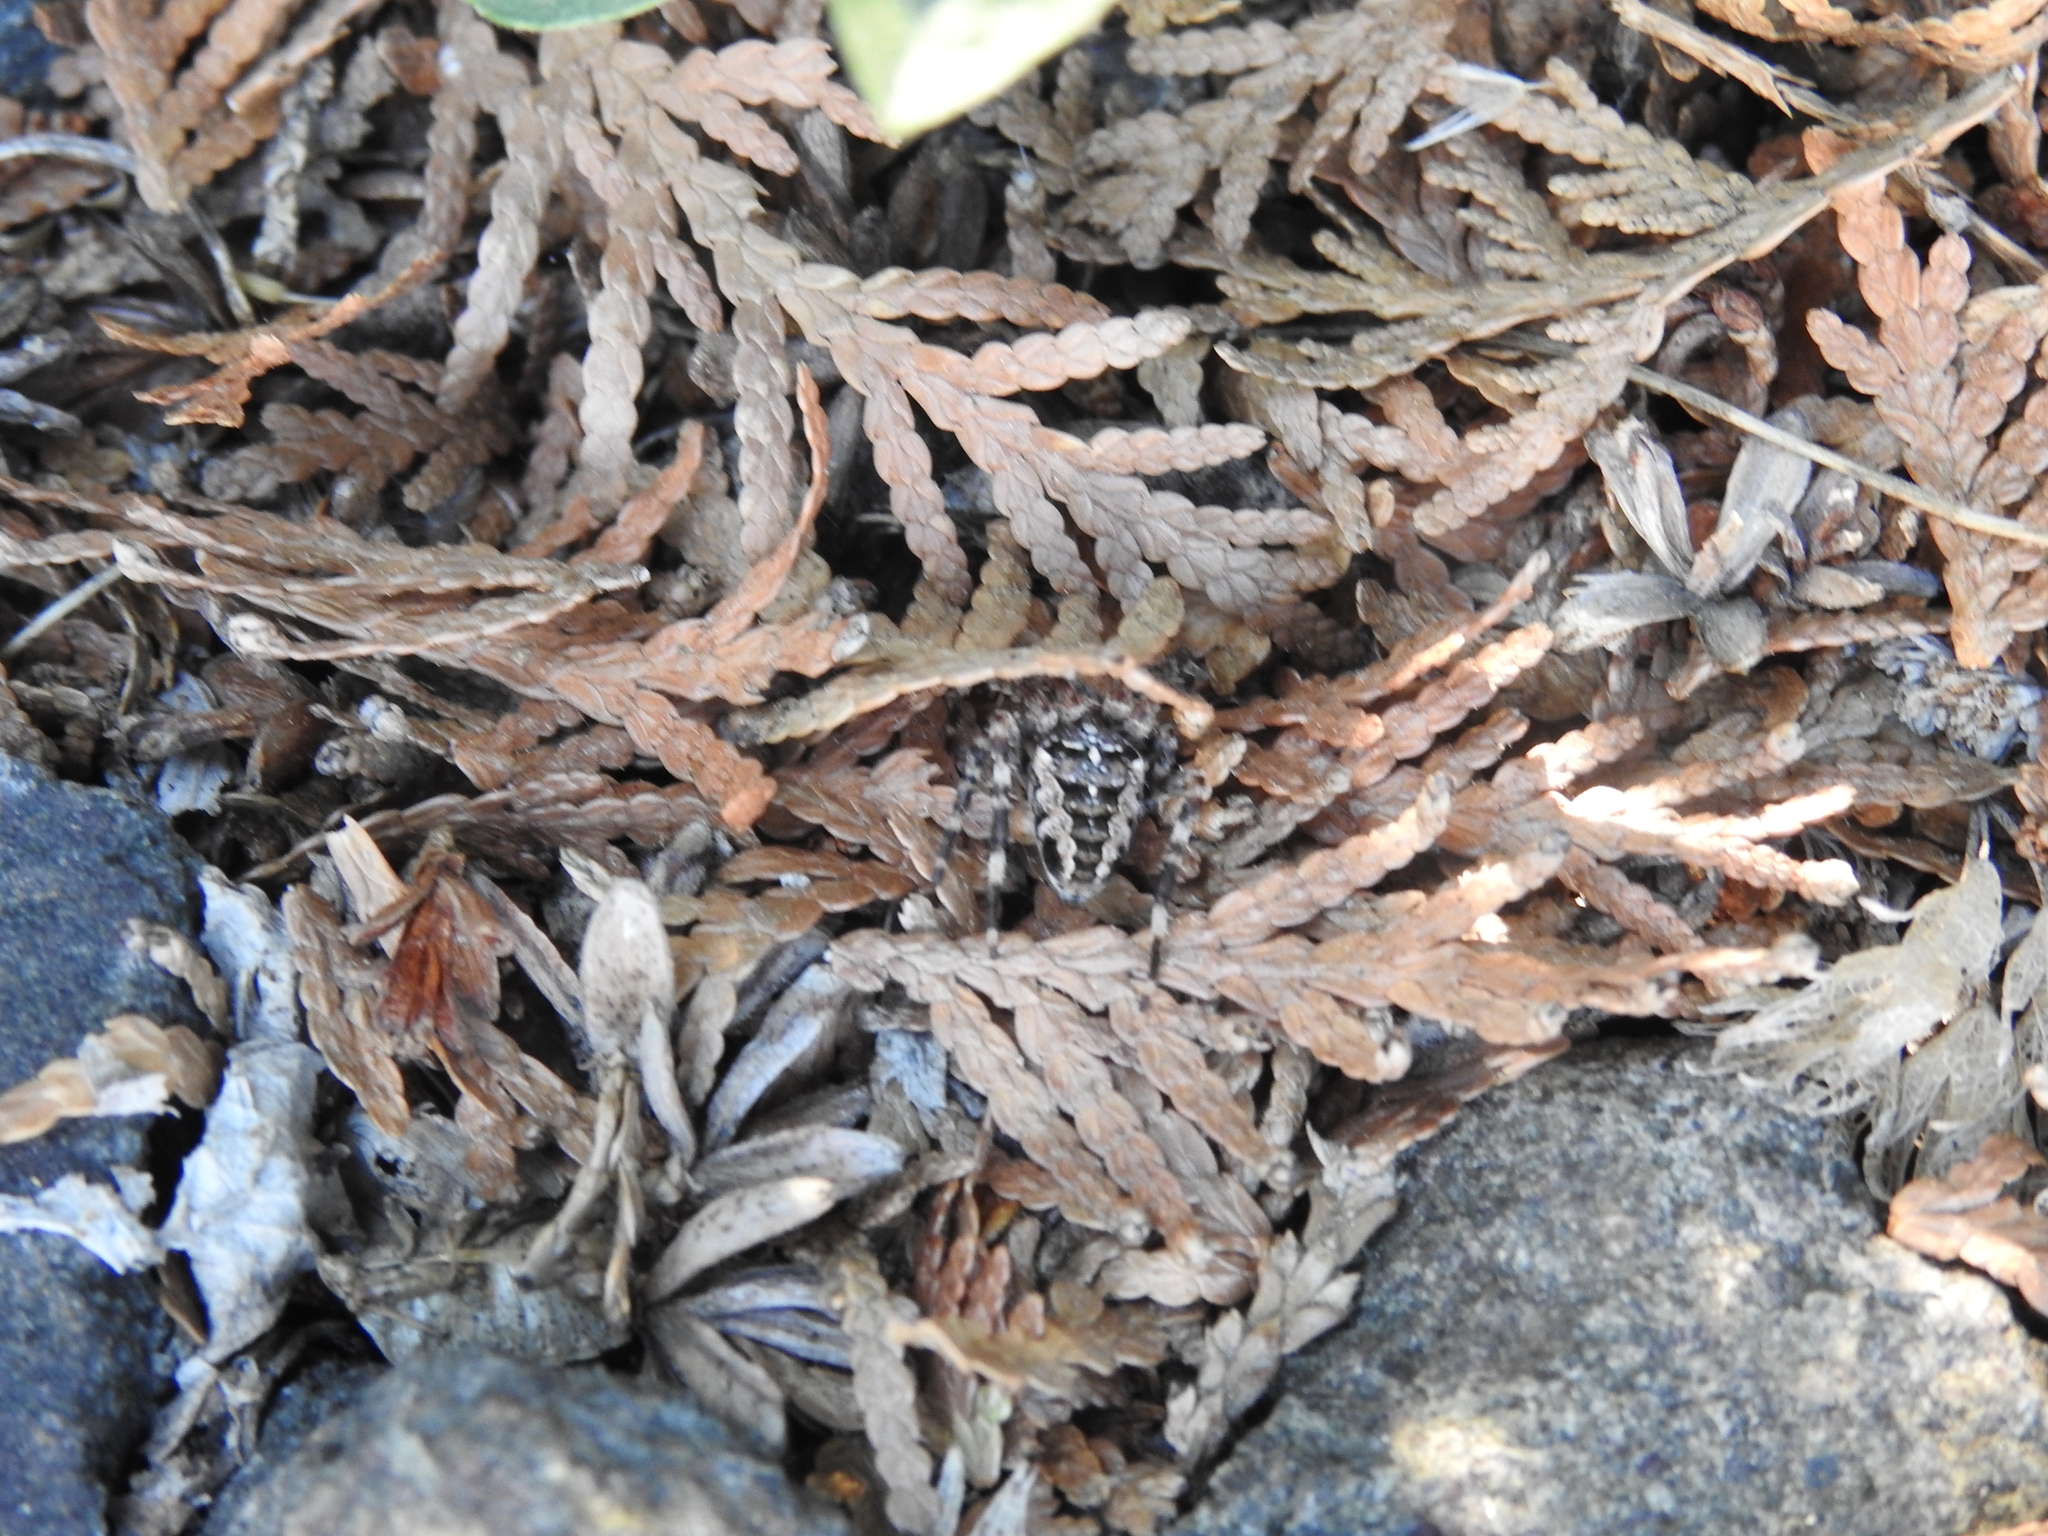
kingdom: Animalia
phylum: Arthropoda
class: Arachnida
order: Araneae
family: Araneidae
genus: Araneus
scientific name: Araneus diadematus
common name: Cross orbweaver
